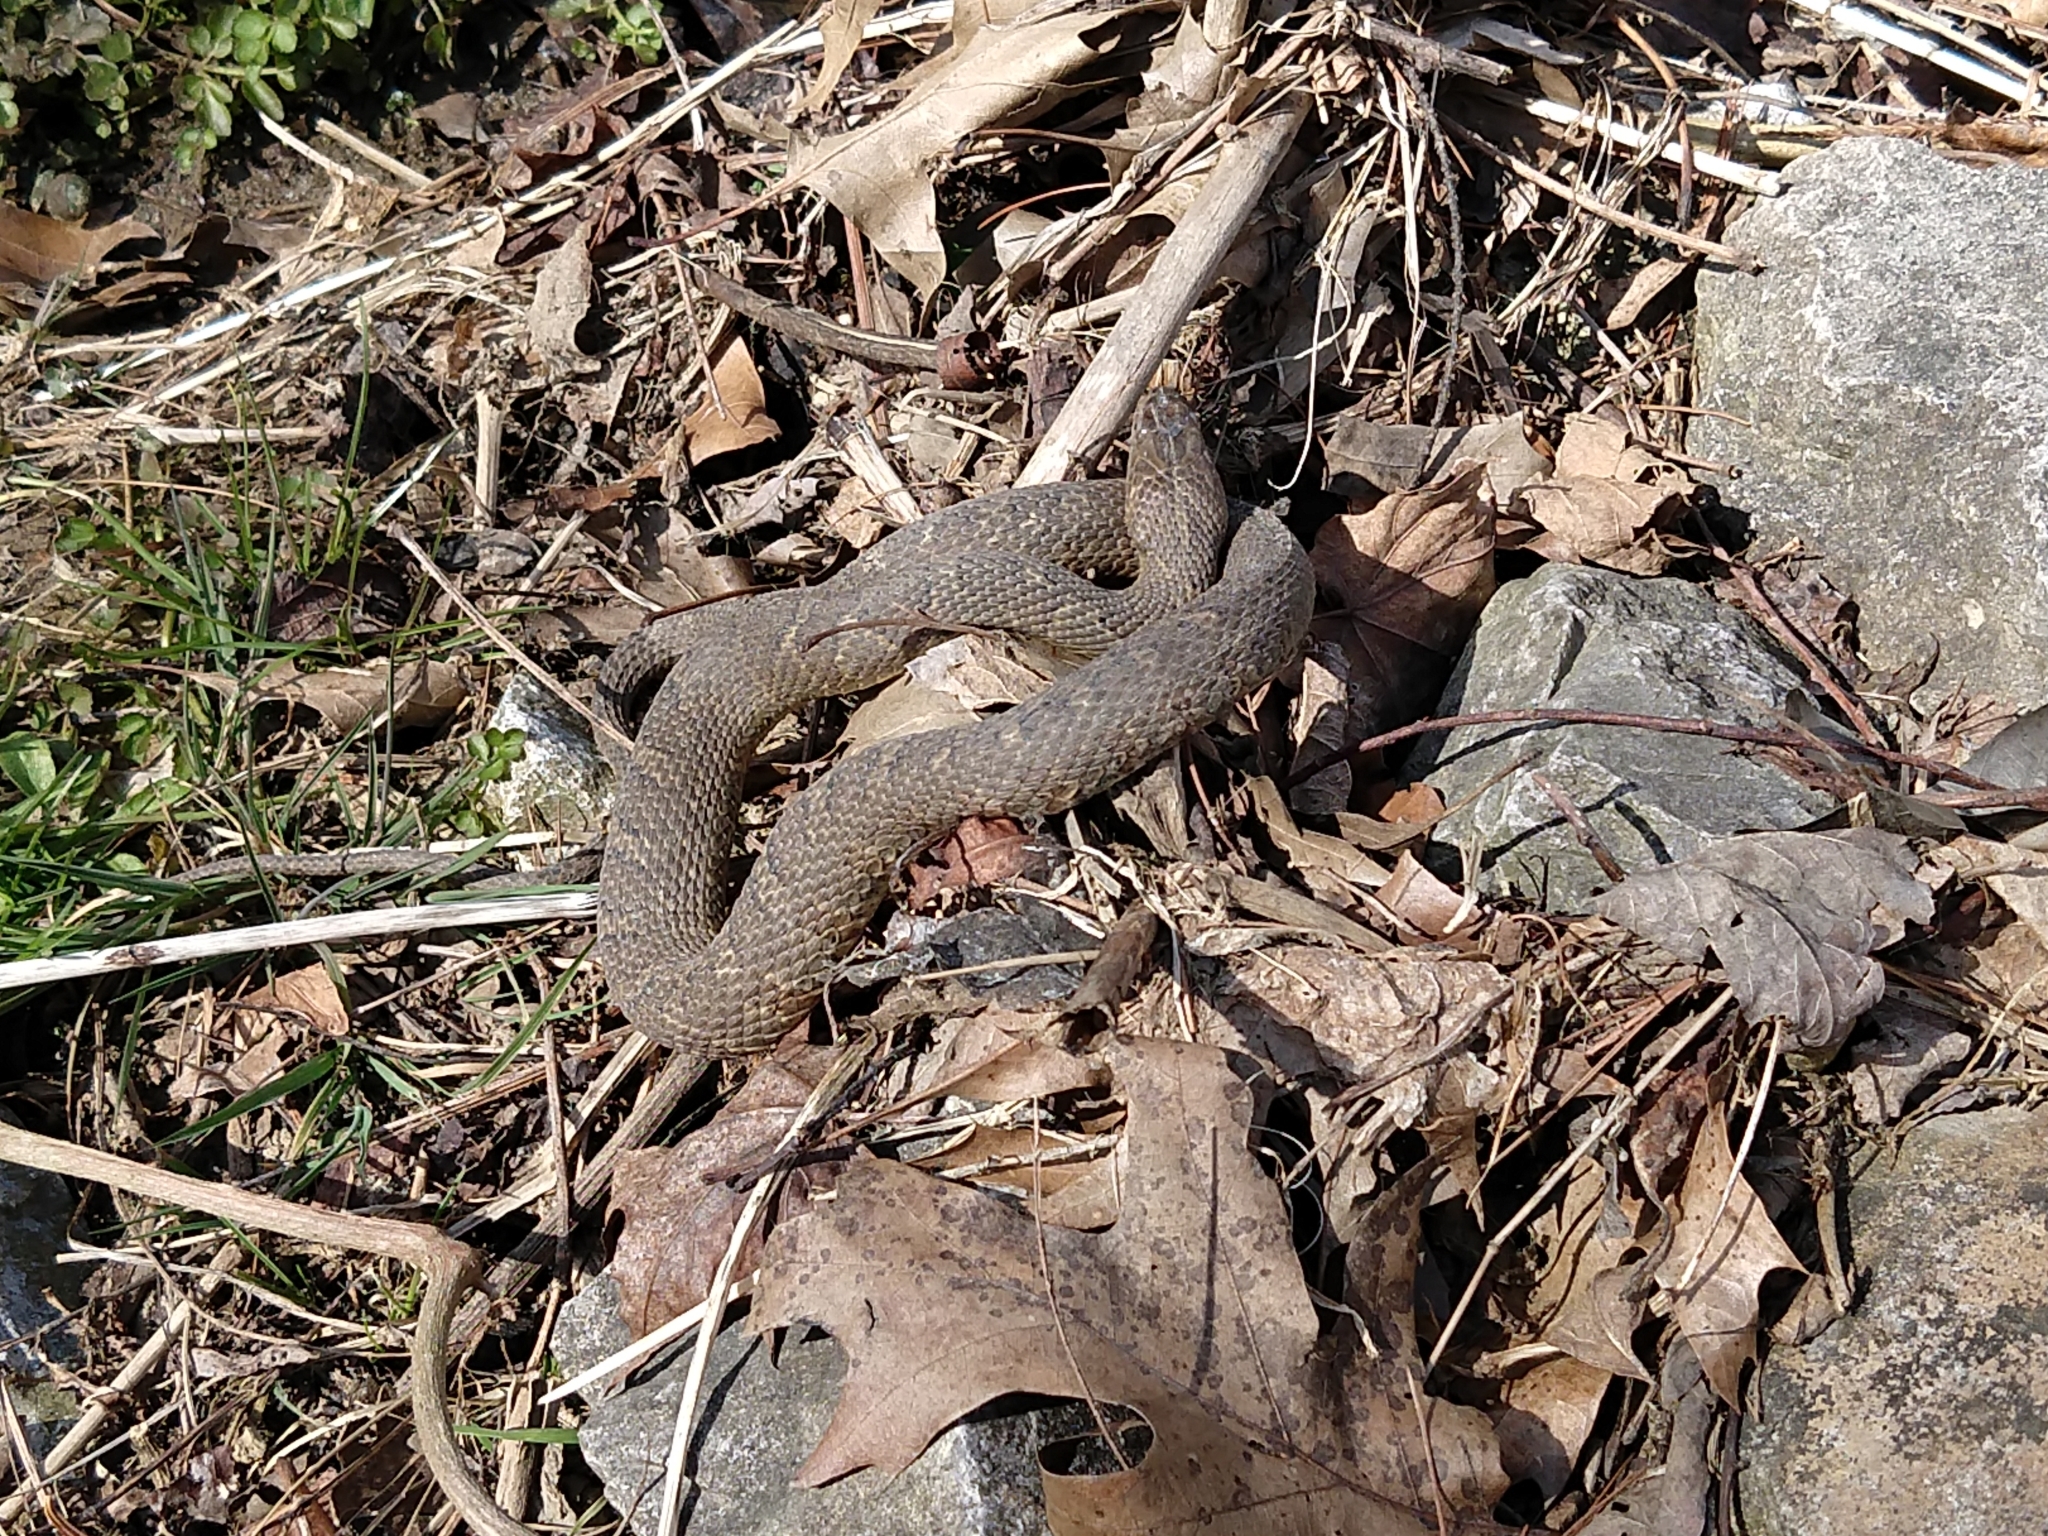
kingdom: Animalia
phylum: Chordata
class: Squamata
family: Colubridae
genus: Nerodia
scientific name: Nerodia sipedon
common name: Northern water snake
